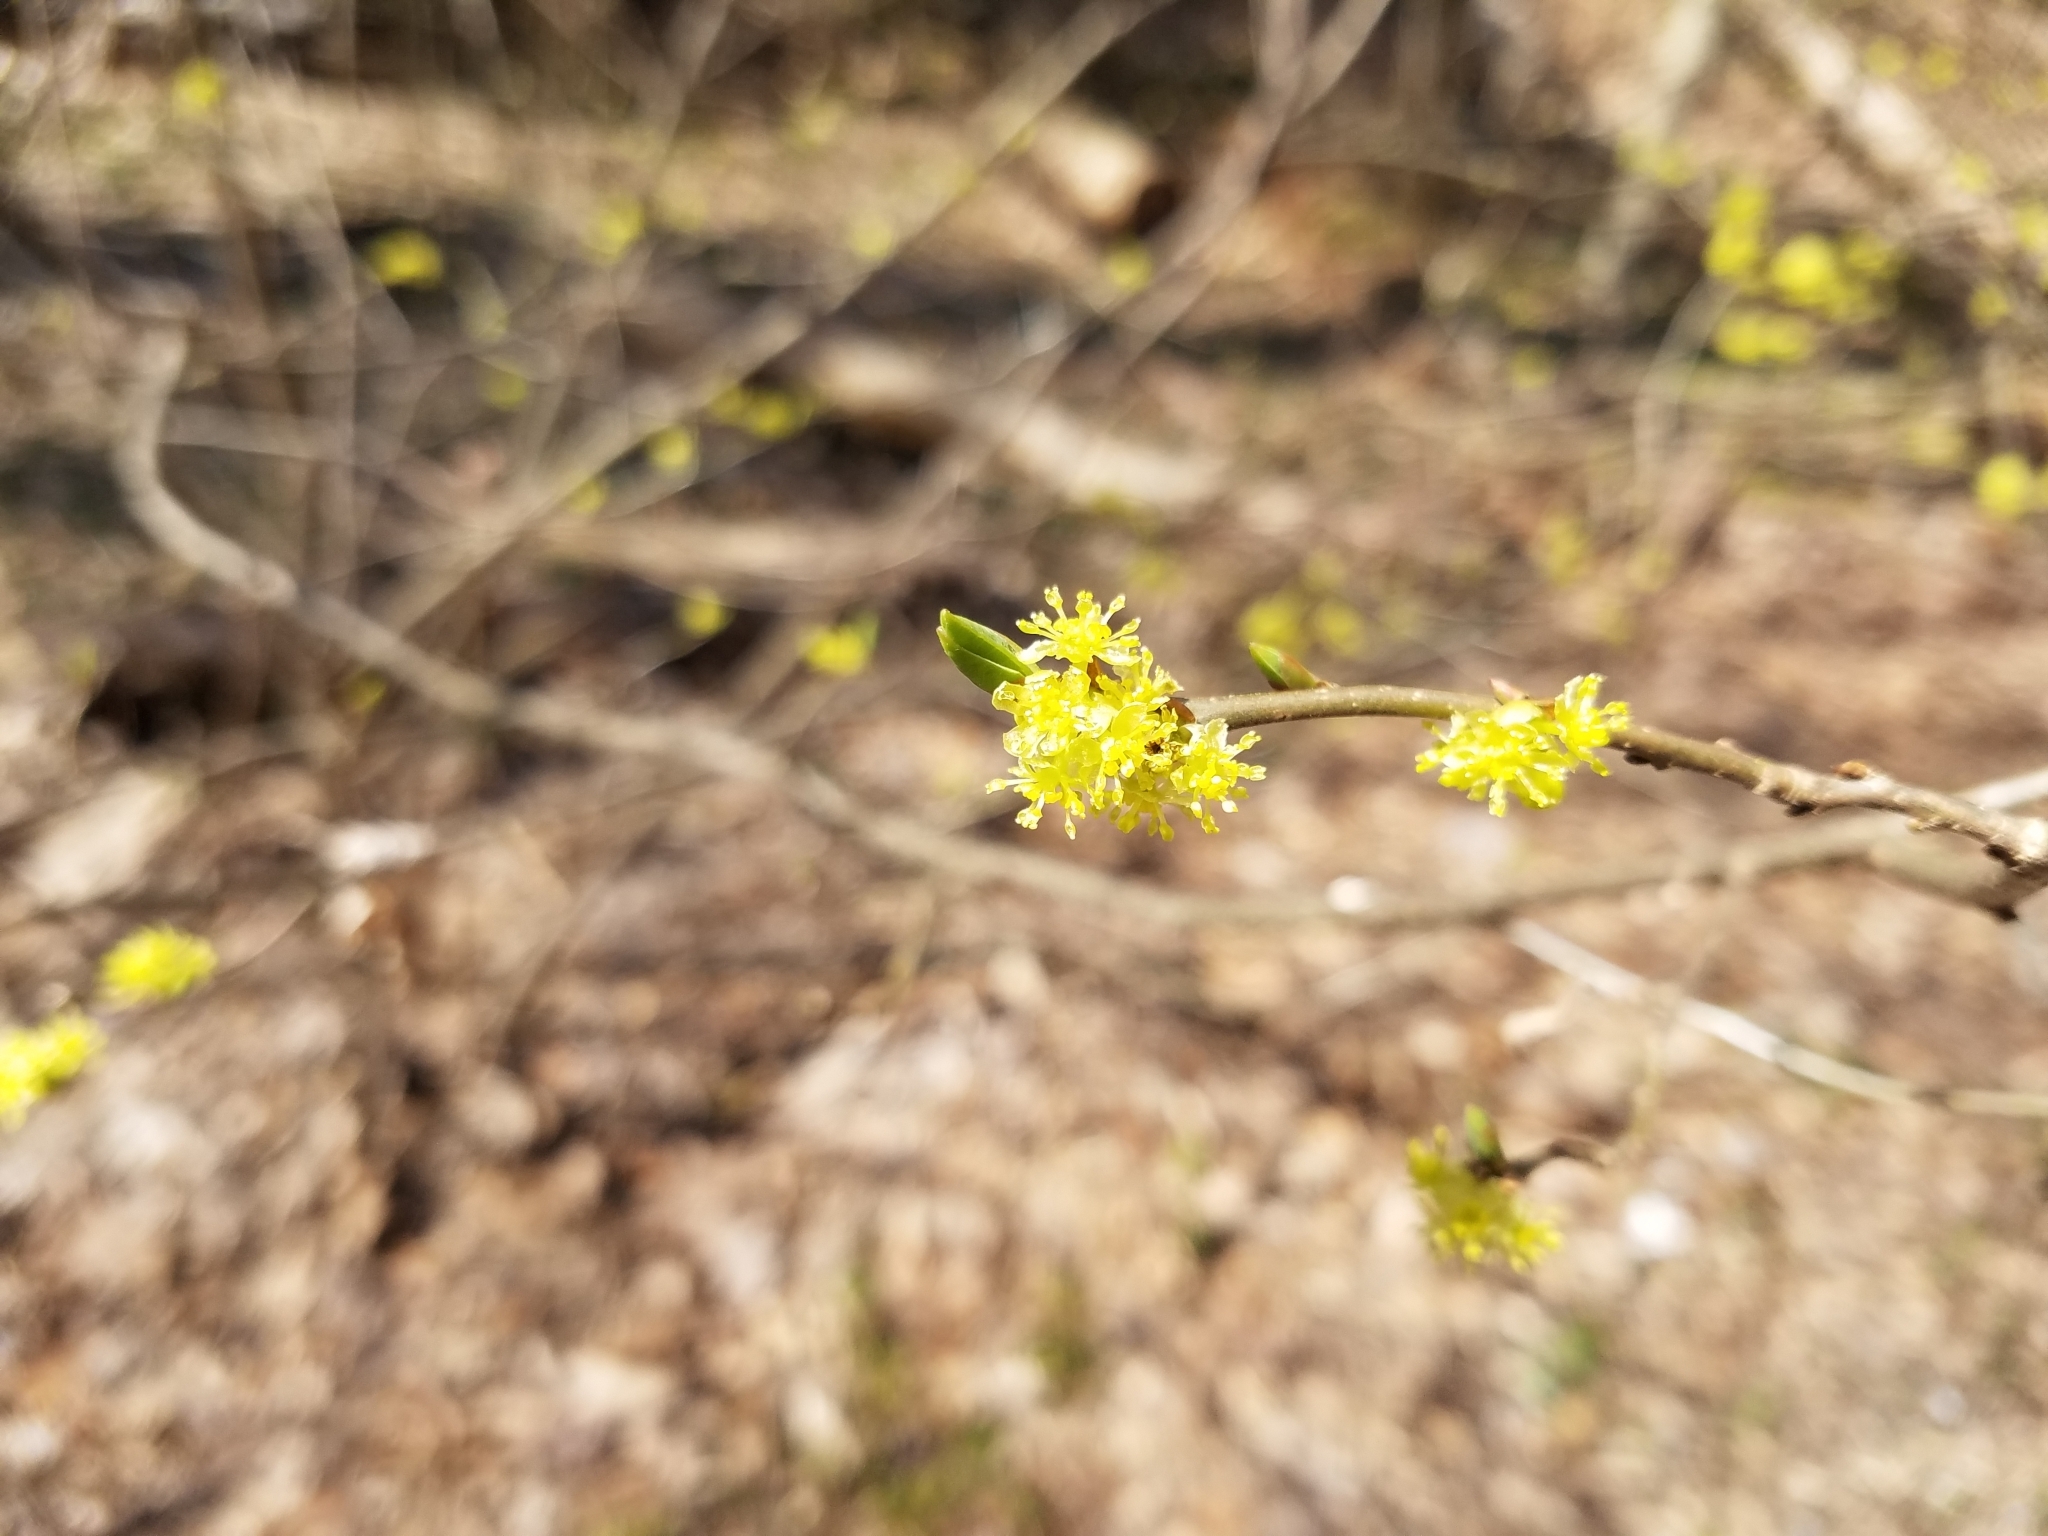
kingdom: Plantae
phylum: Tracheophyta
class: Magnoliopsida
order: Laurales
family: Lauraceae
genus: Lindera
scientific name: Lindera benzoin
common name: Spicebush
